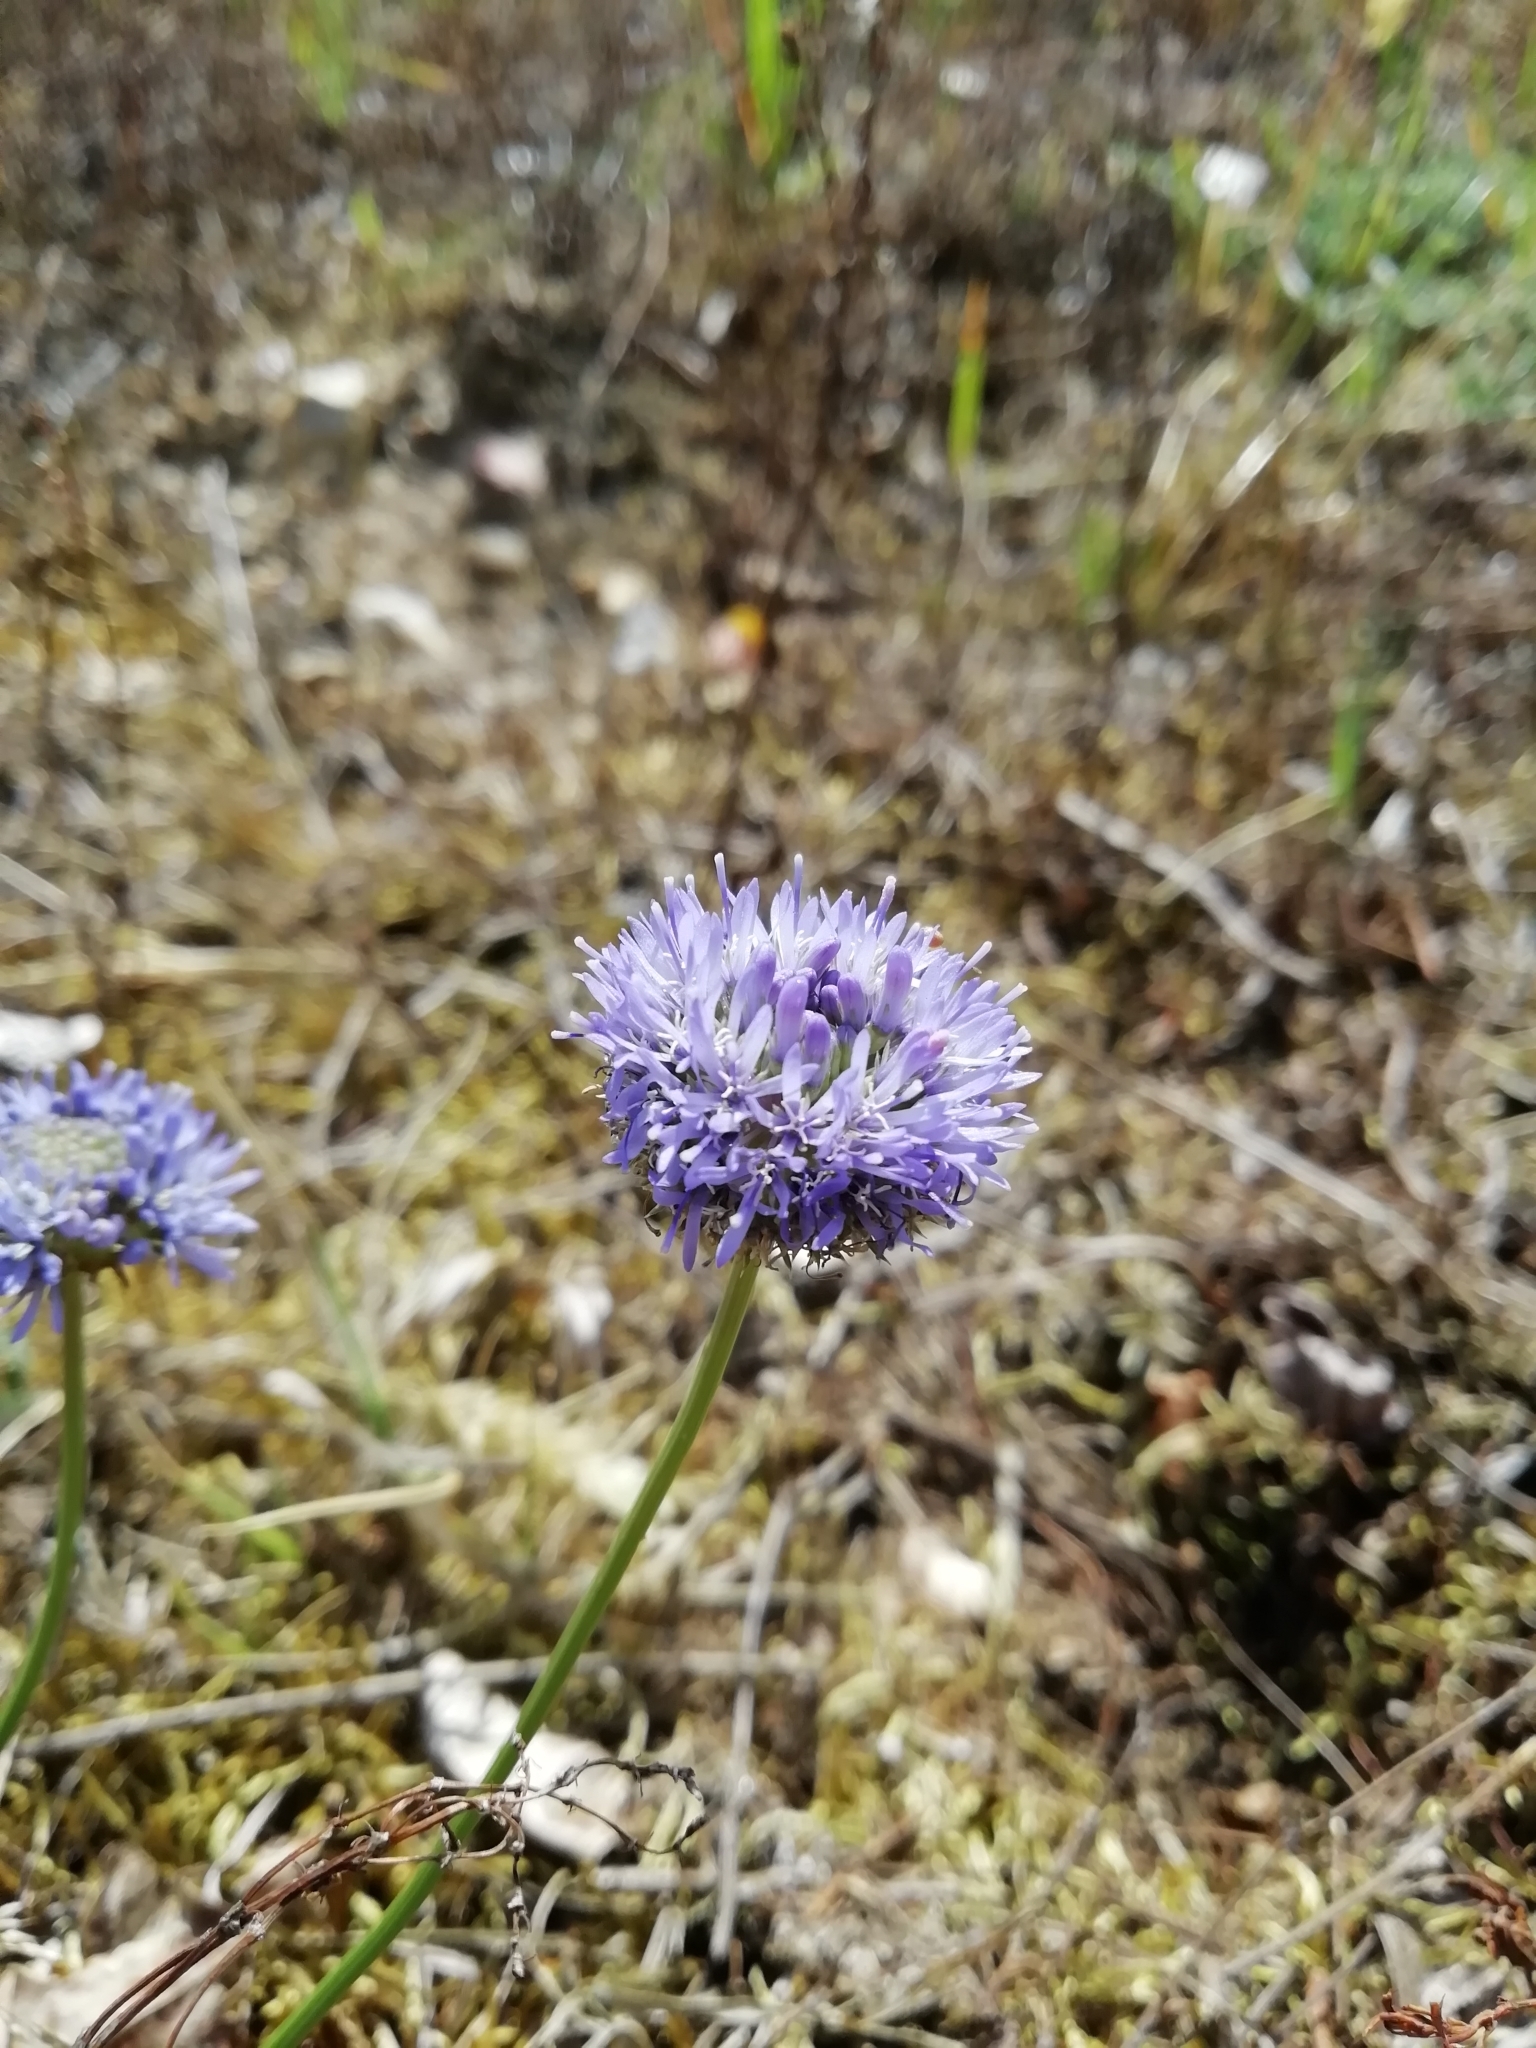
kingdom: Plantae
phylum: Tracheophyta
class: Magnoliopsida
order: Asterales
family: Campanulaceae
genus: Jasione
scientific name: Jasione montana
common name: Sheep's-bit
